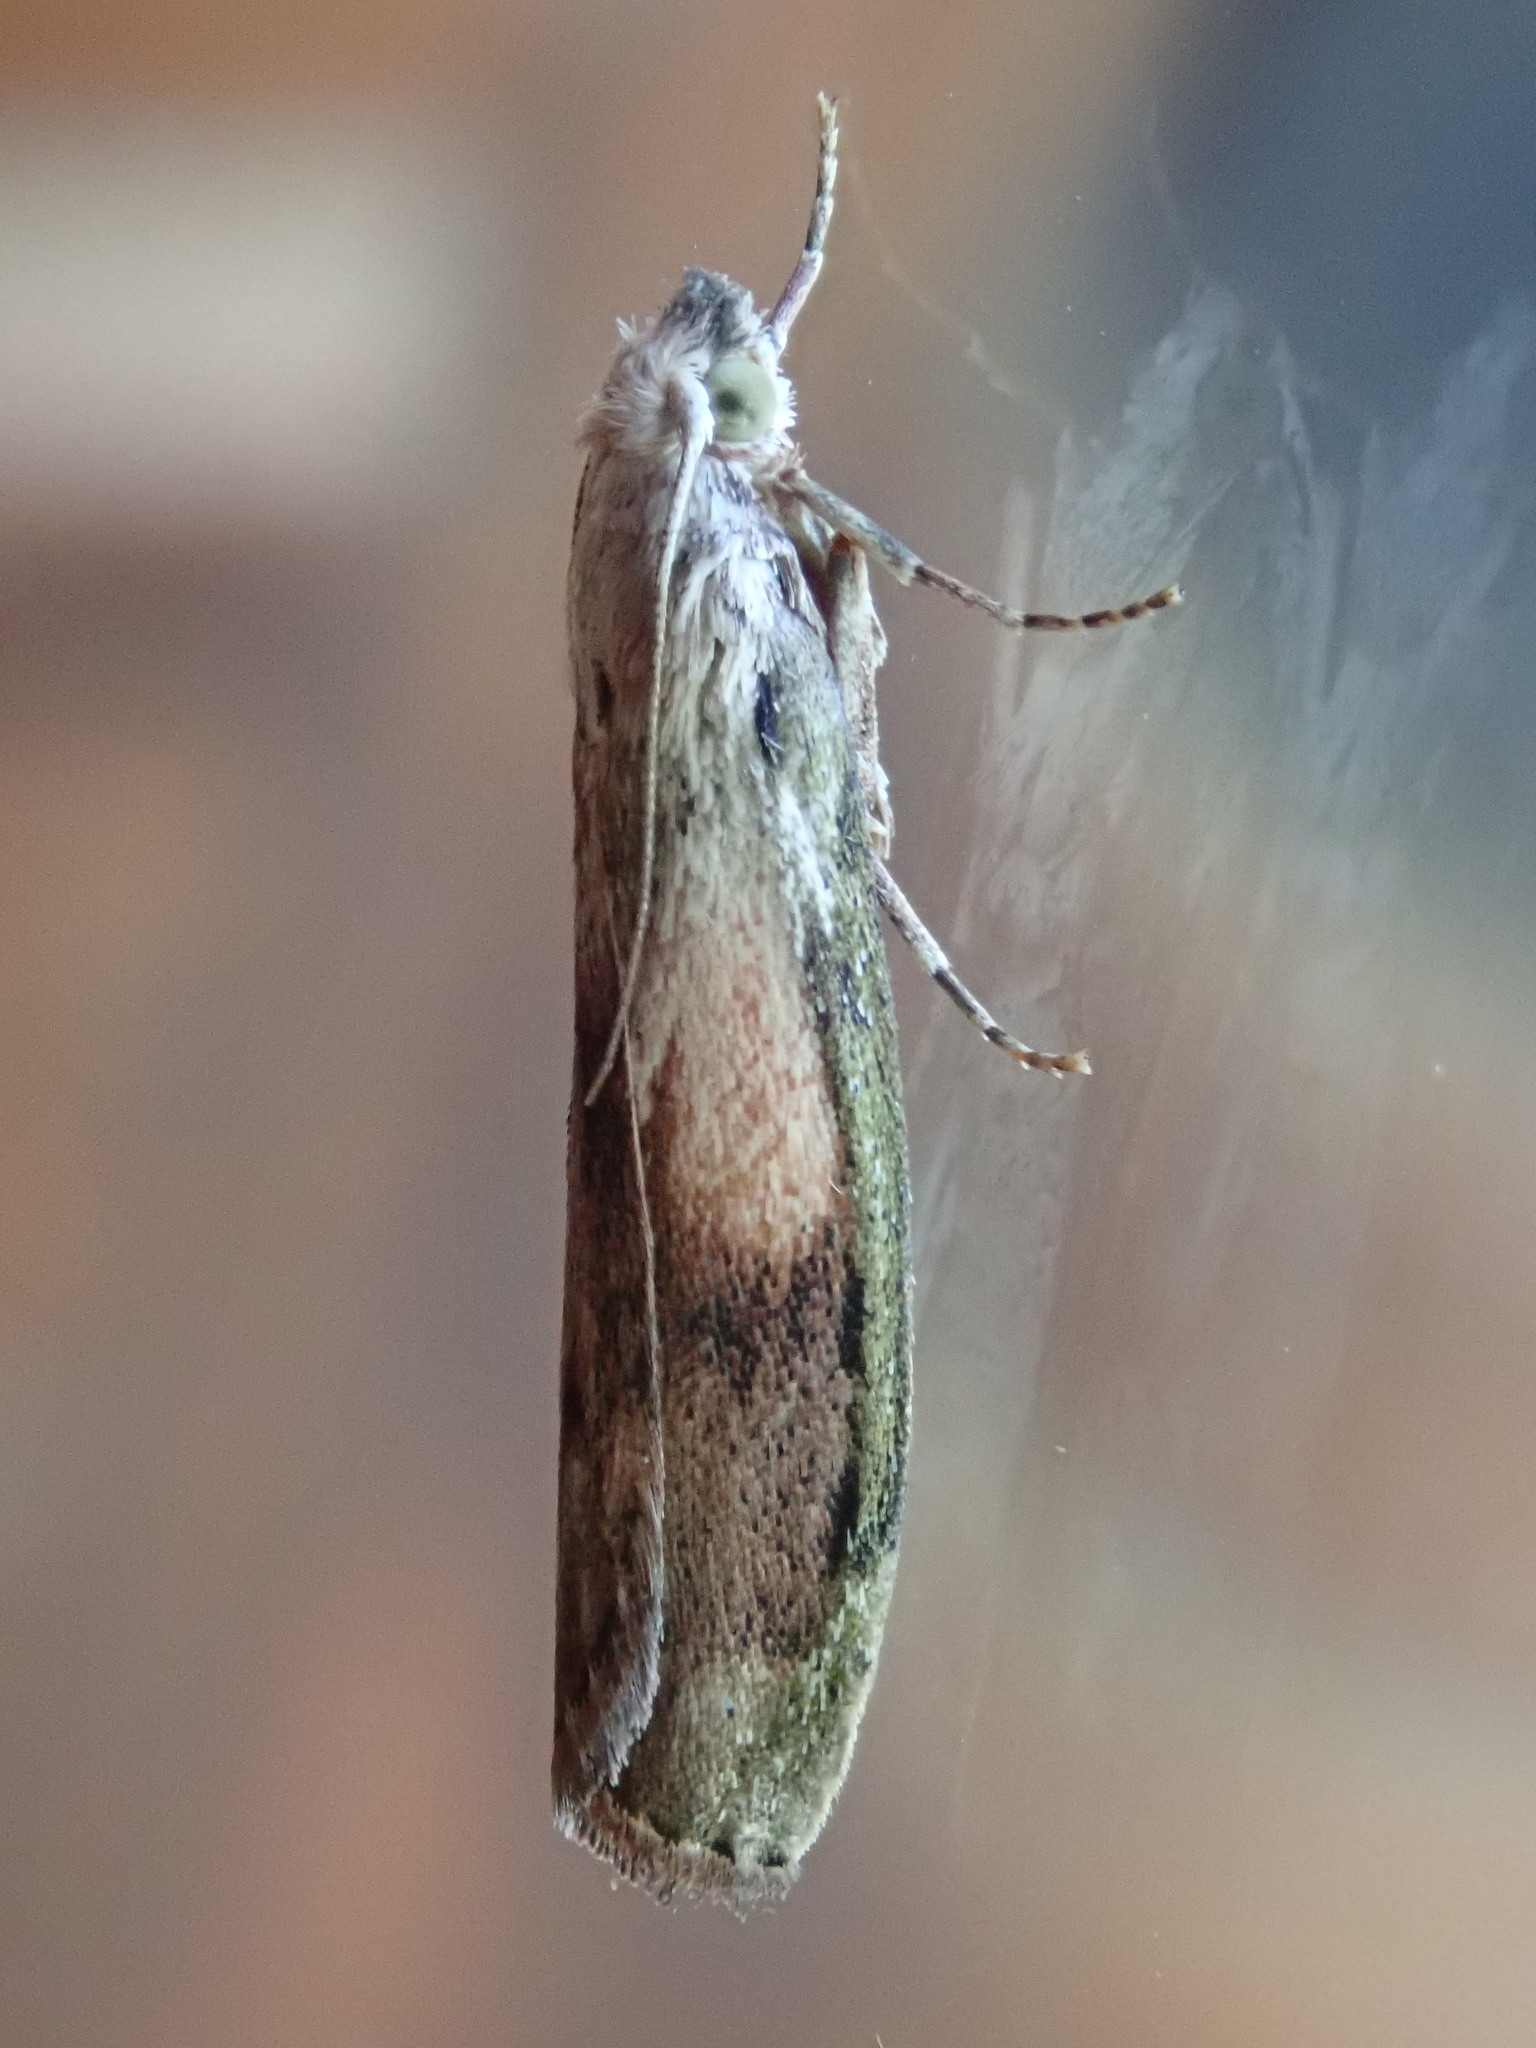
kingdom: Animalia
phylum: Arthropoda
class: Insecta
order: Lepidoptera
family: Pyralidae
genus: Aphomia
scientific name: Aphomia sociella
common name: Bee moth
